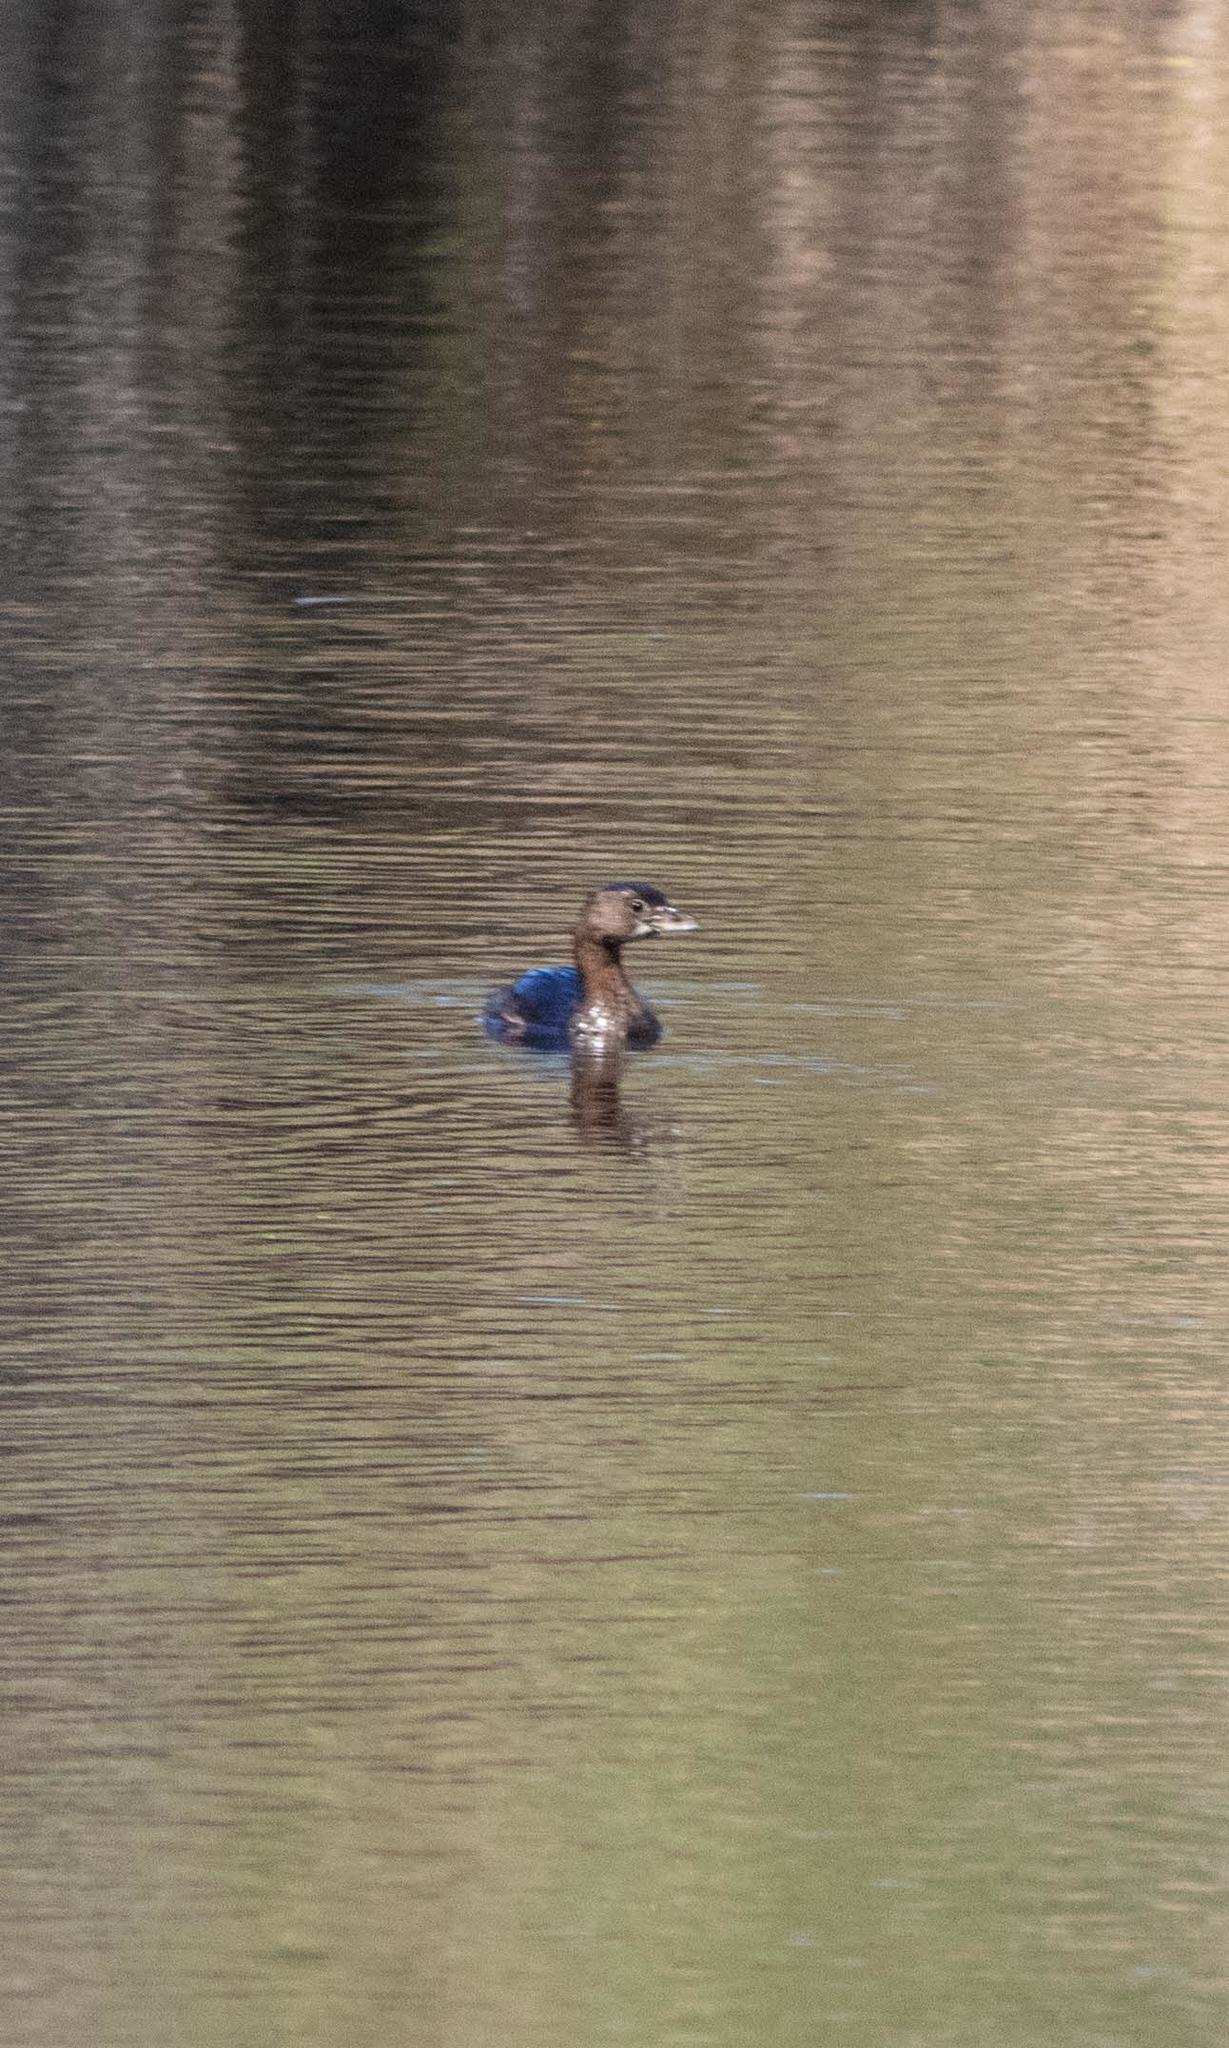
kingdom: Animalia
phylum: Chordata
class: Aves
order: Podicipediformes
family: Podicipedidae
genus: Podilymbus
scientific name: Podilymbus podiceps
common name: Pied-billed grebe
